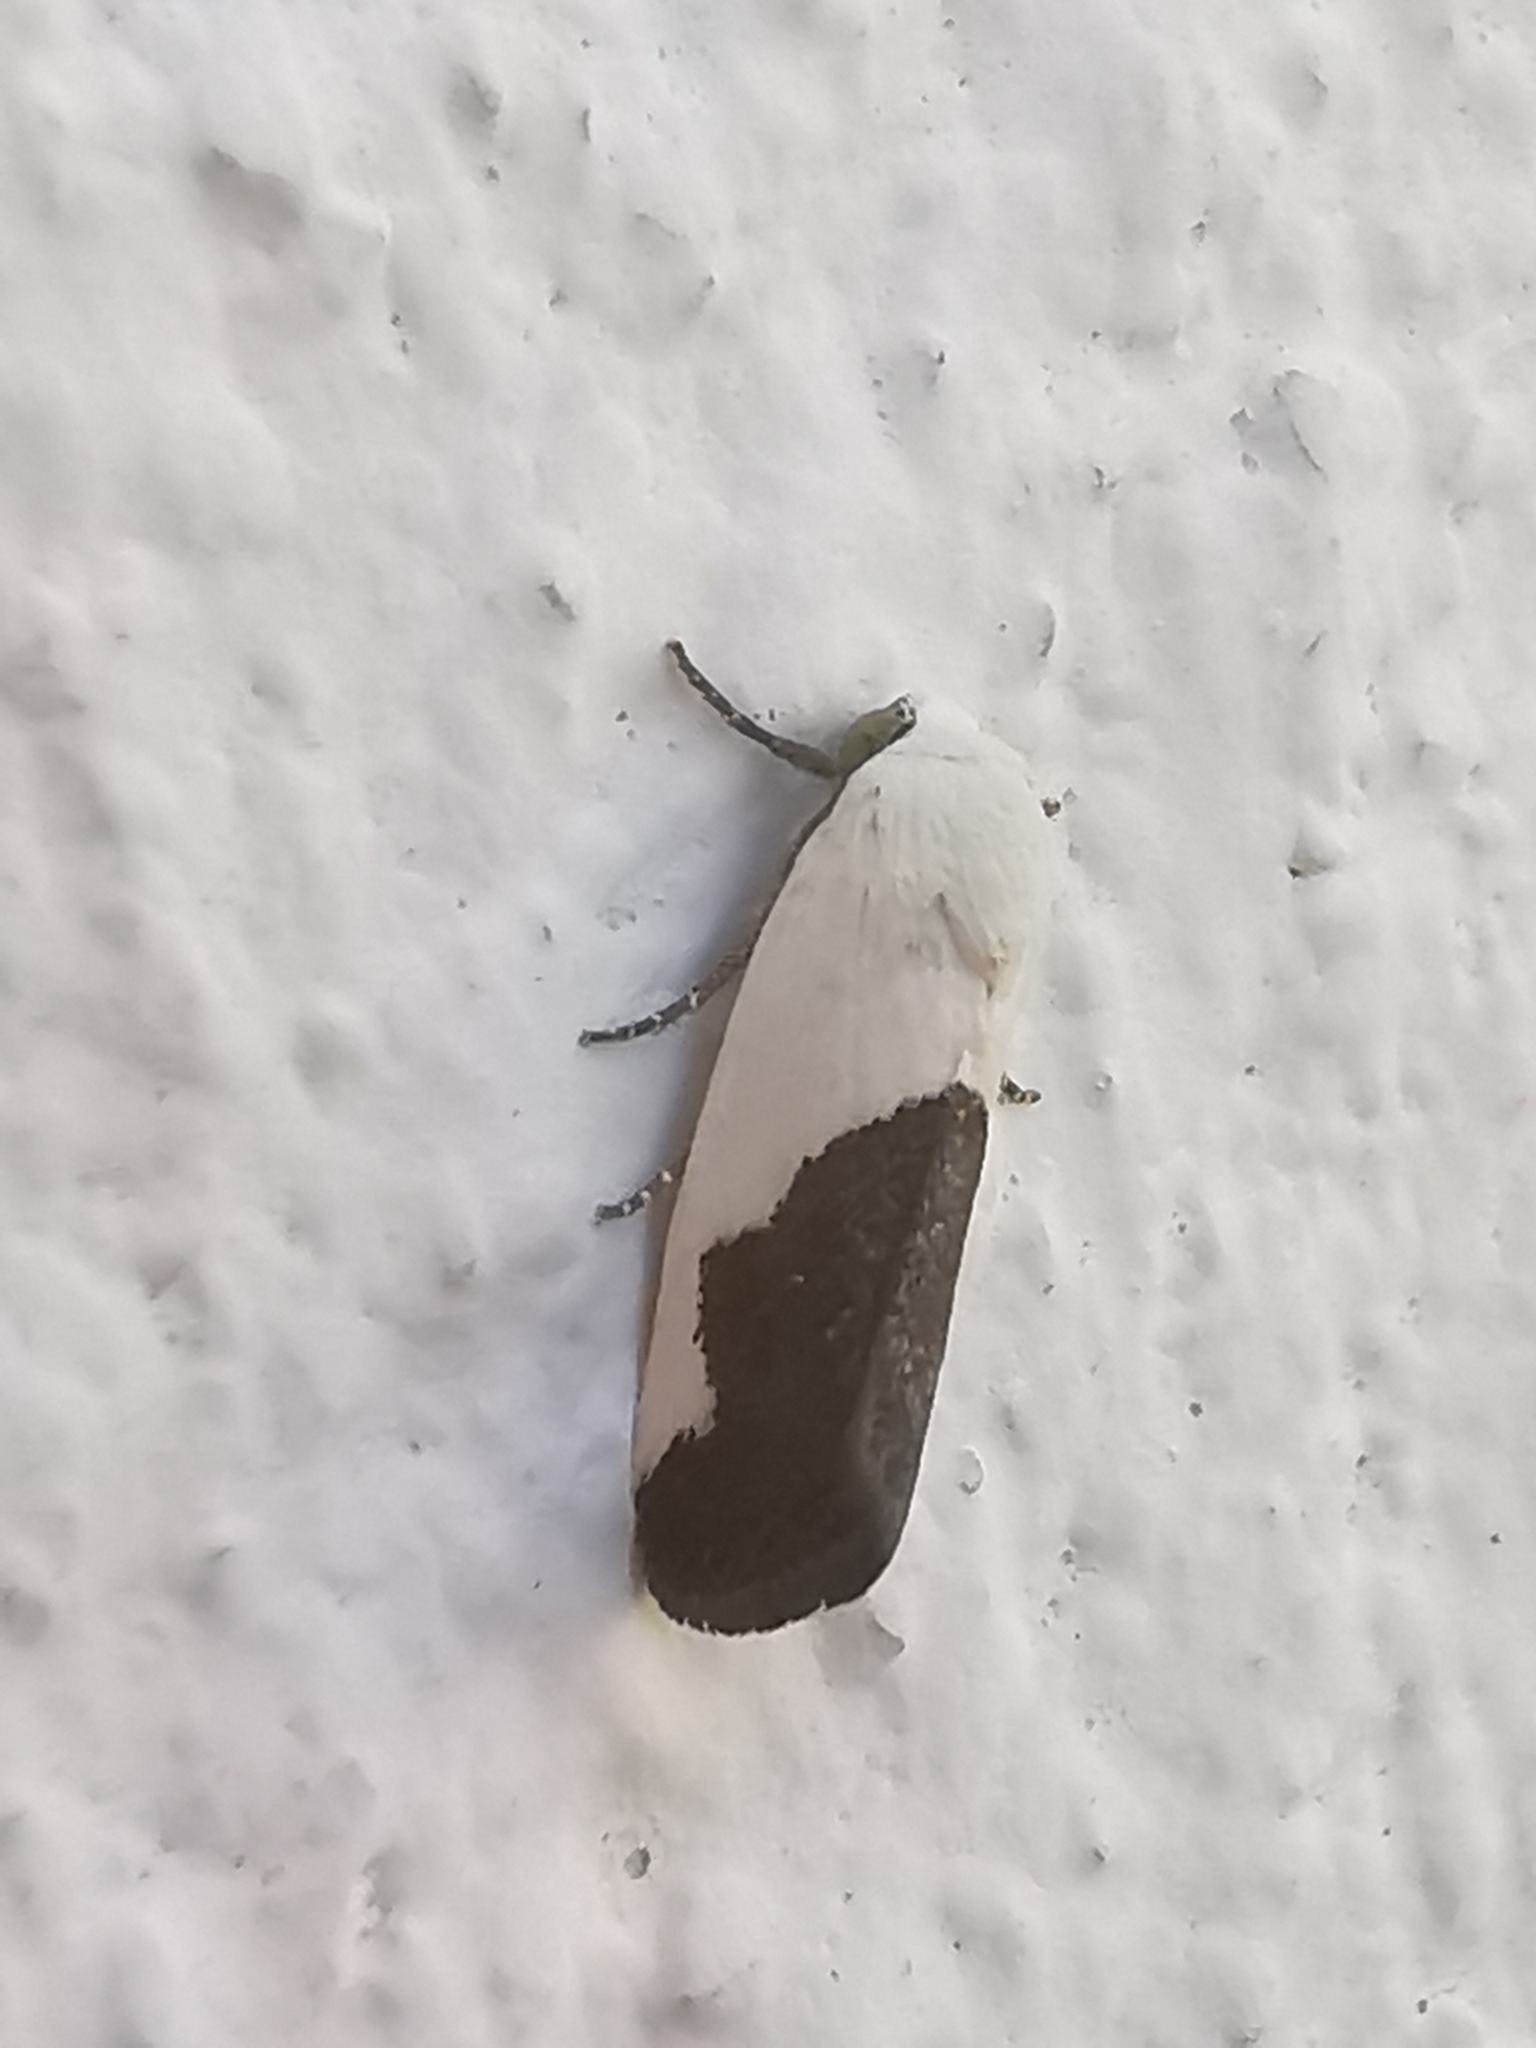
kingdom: Animalia
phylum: Arthropoda
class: Insecta
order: Lepidoptera
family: Noctuidae
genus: Acontia
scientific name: Acontia heonyx
